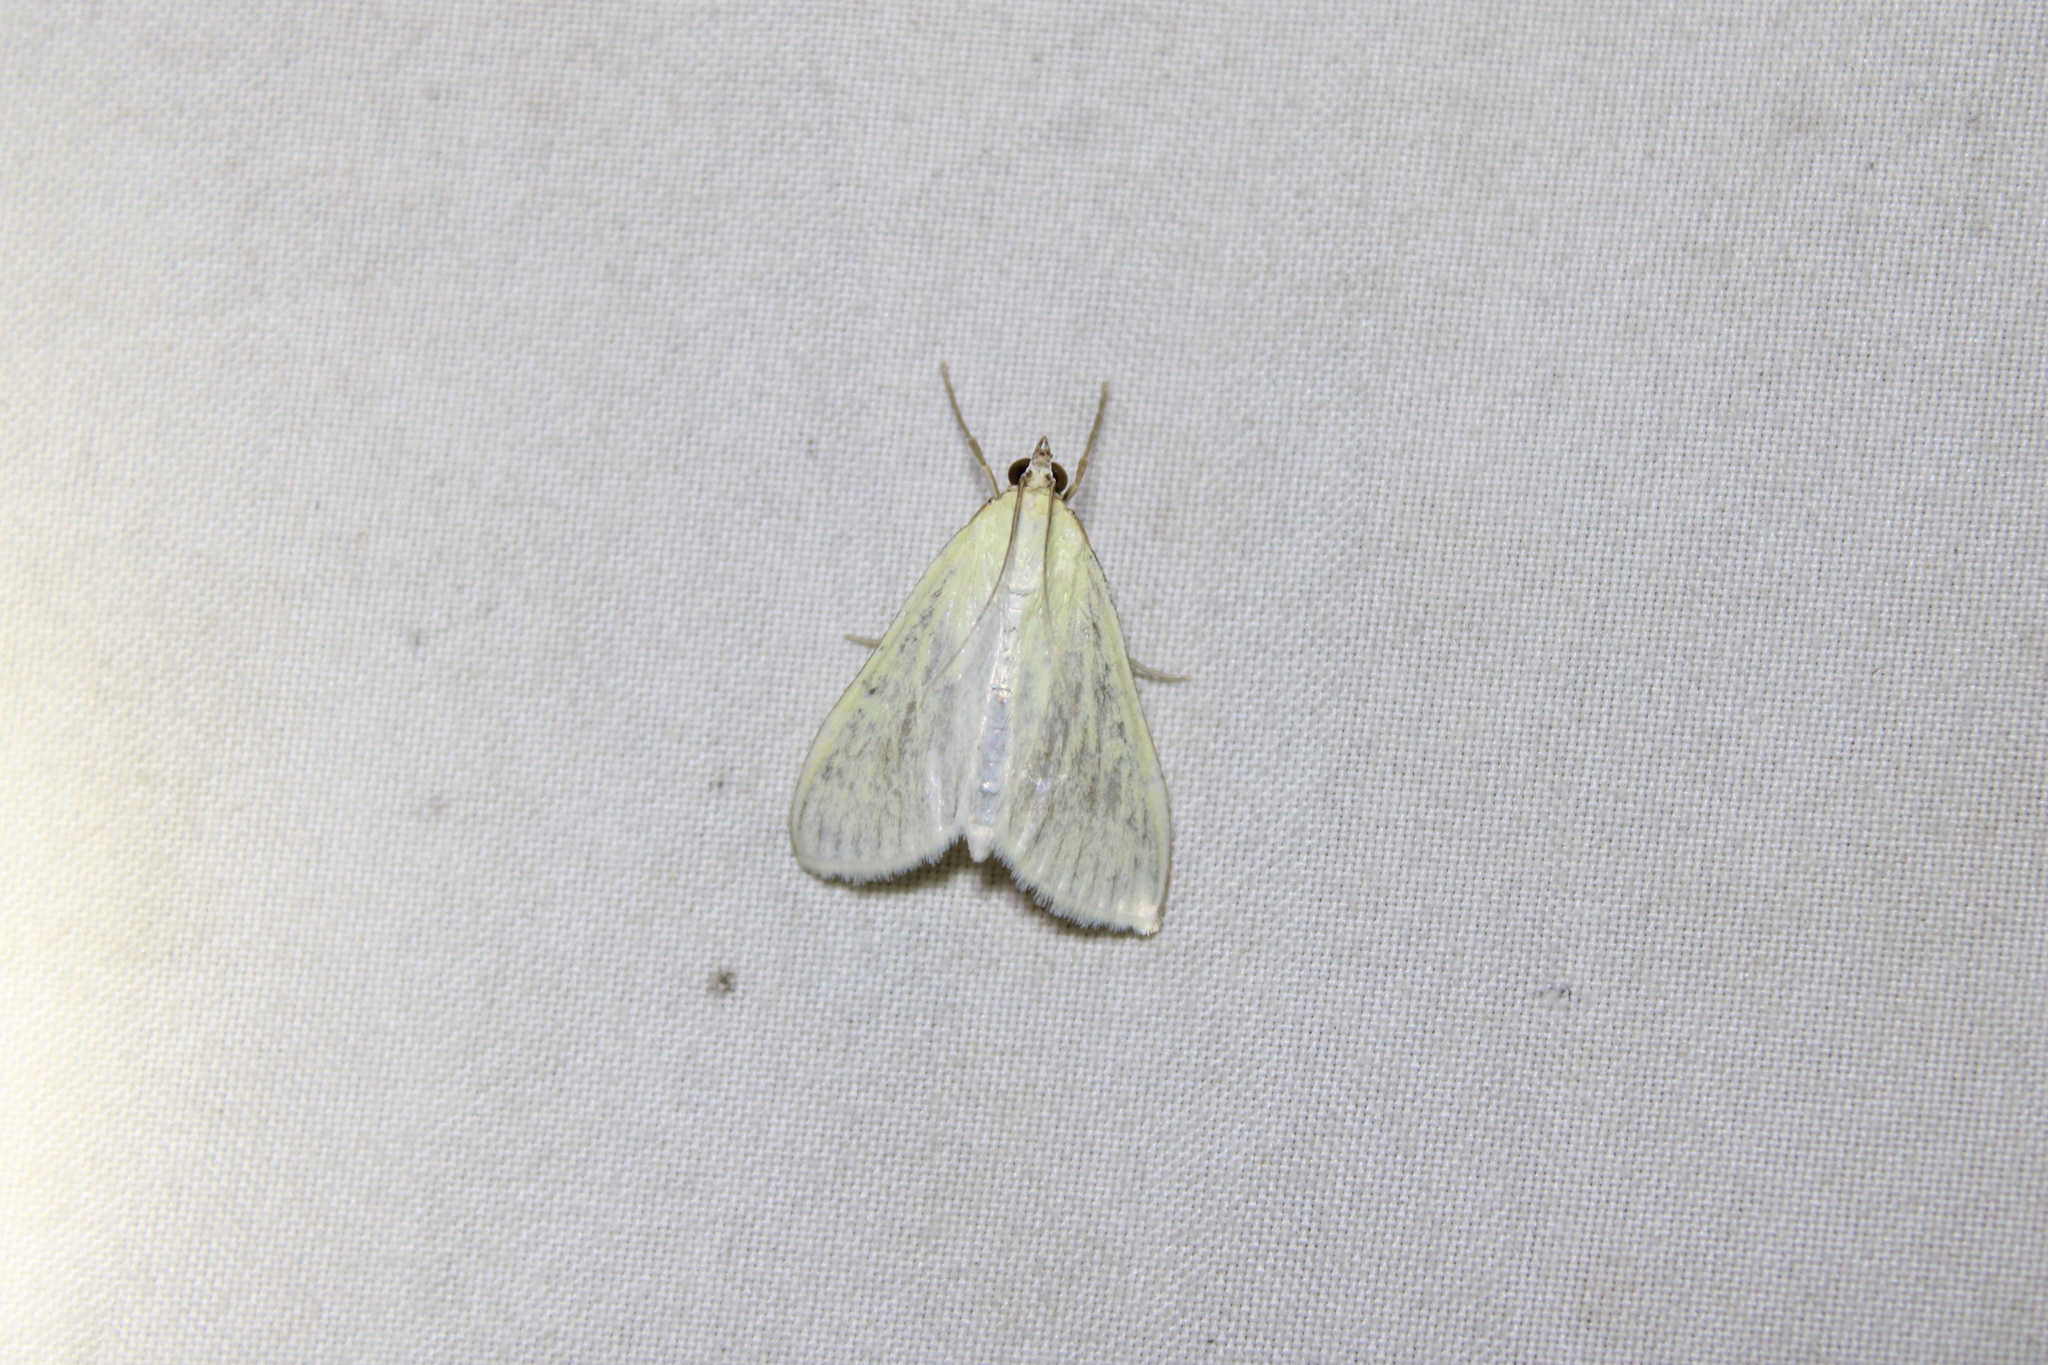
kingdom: Animalia
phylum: Arthropoda
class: Insecta
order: Lepidoptera
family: Crambidae
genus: Sitochroa
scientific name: Sitochroa palealis
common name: Greenish-yellow sitochroa moth
